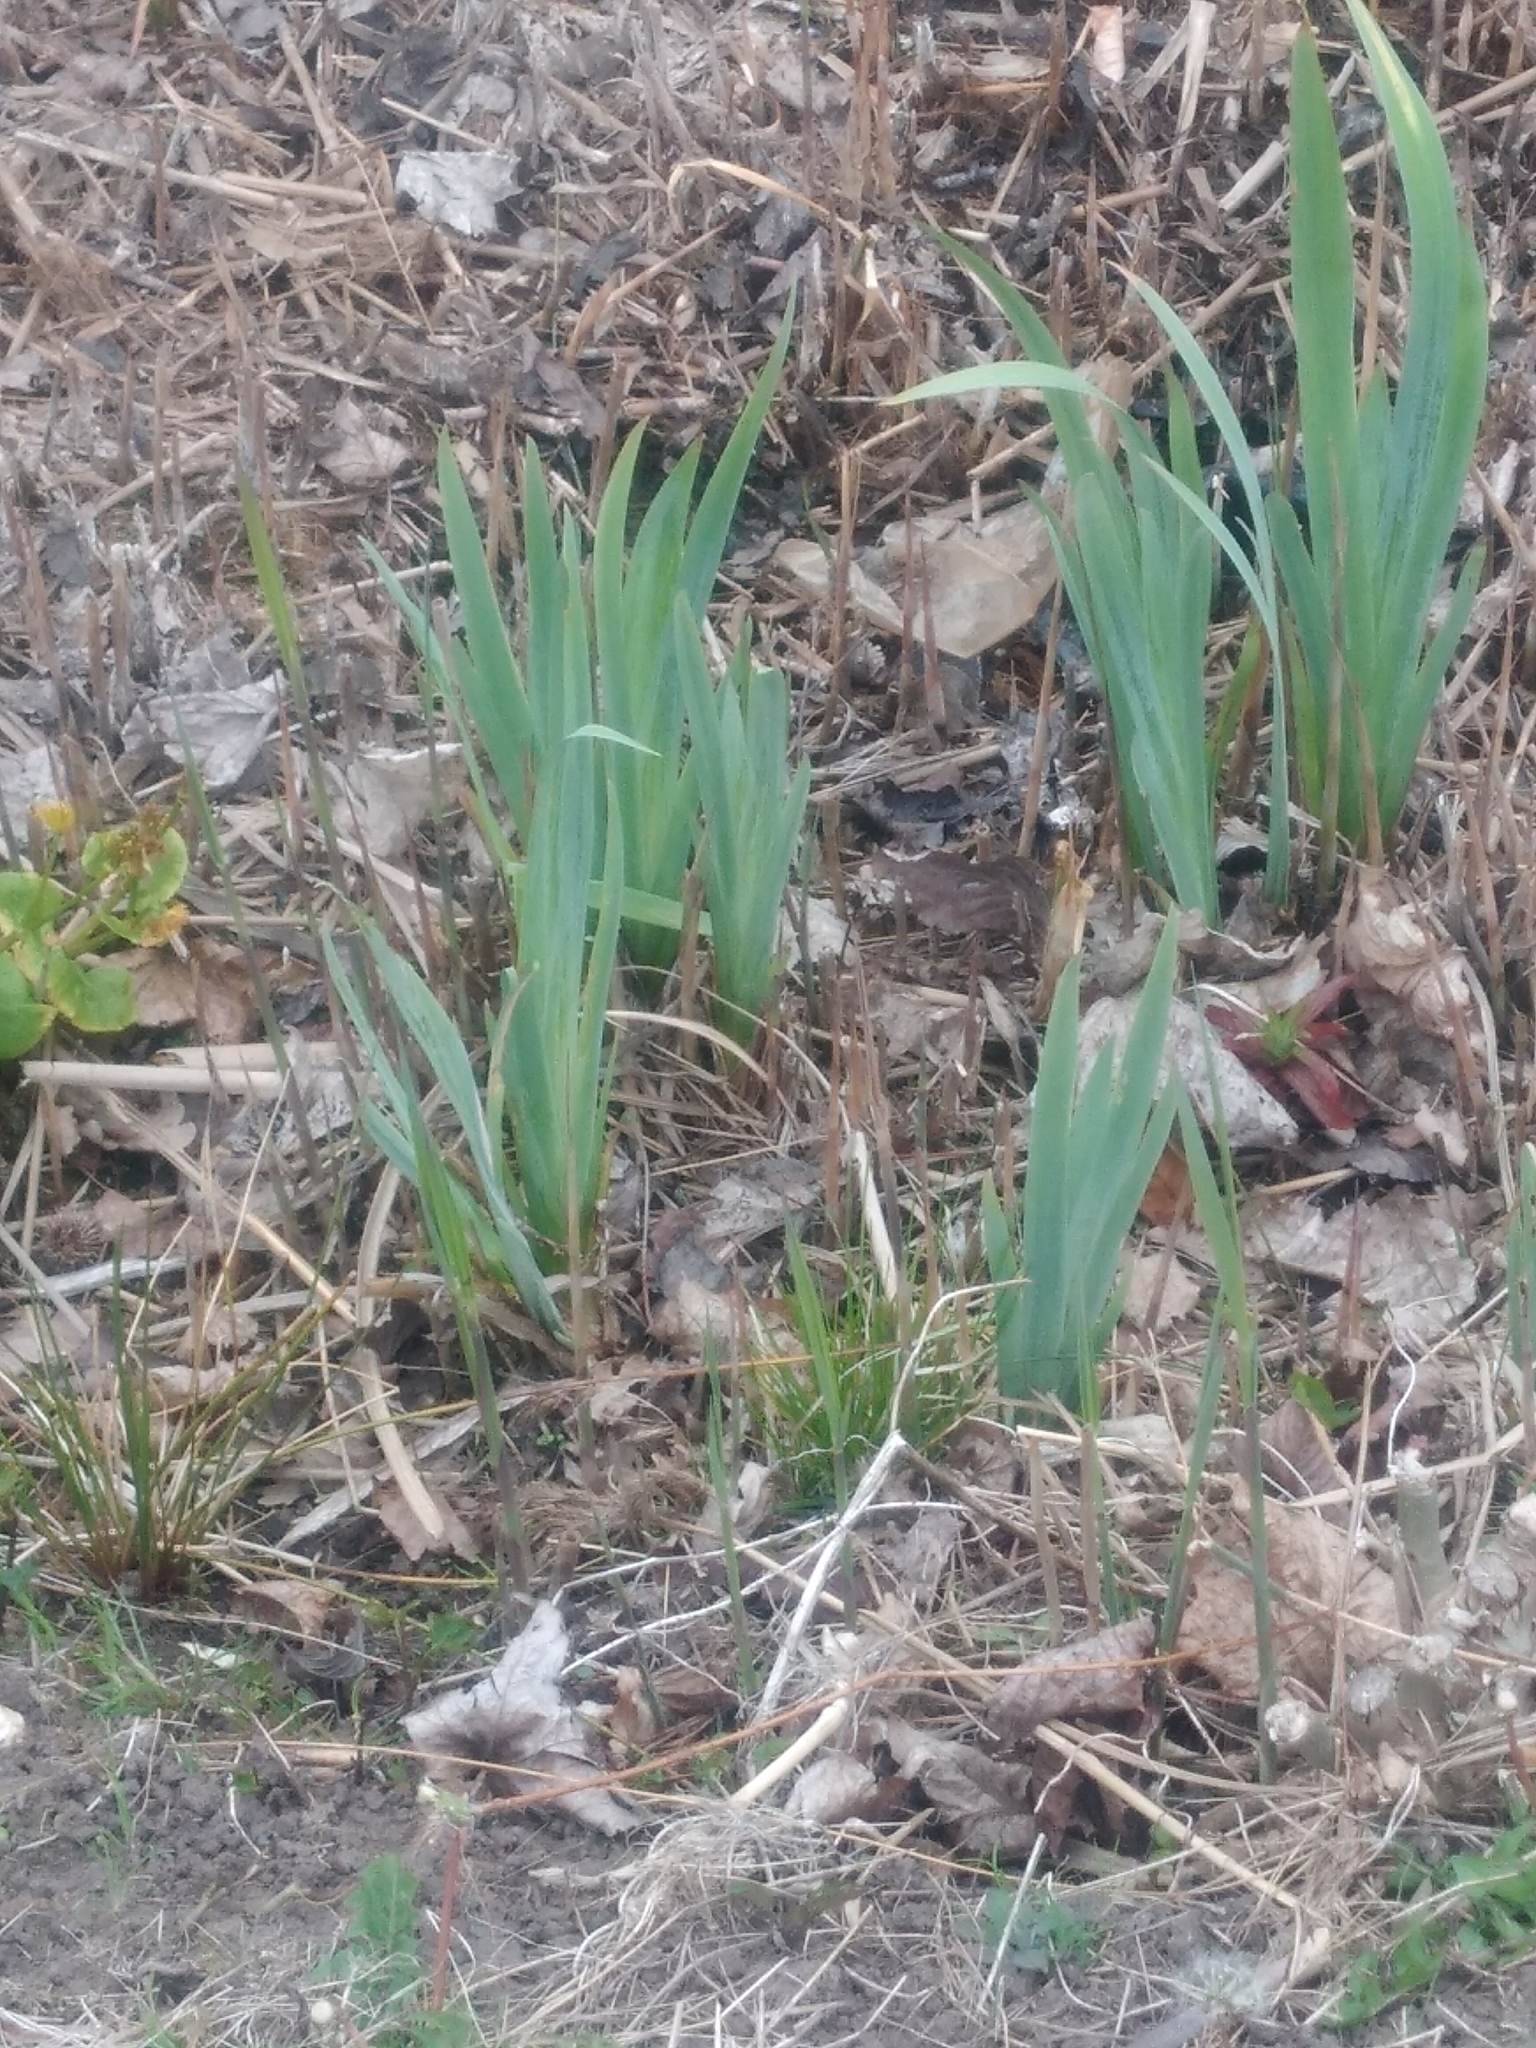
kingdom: Plantae
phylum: Tracheophyta
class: Liliopsida
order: Asparagales
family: Iridaceae
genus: Iris
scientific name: Iris pseudacorus
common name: Yellow flag
